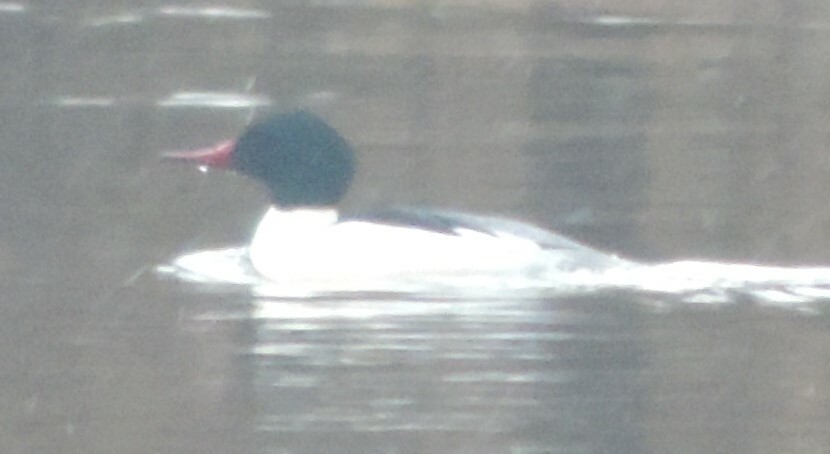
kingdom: Animalia
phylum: Chordata
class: Aves
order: Anseriformes
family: Anatidae
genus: Mergus
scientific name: Mergus merganser
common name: Common merganser
